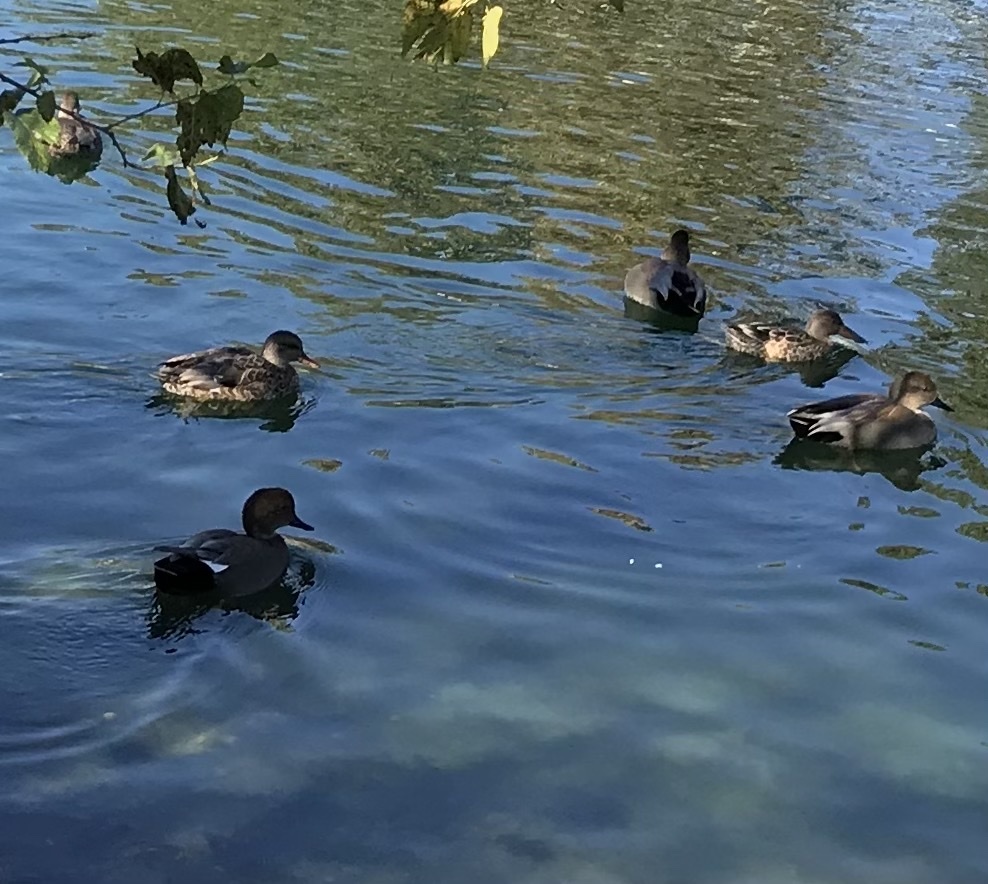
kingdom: Animalia
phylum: Chordata
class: Aves
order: Anseriformes
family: Anatidae
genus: Mareca
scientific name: Mareca strepera
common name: Gadwall
